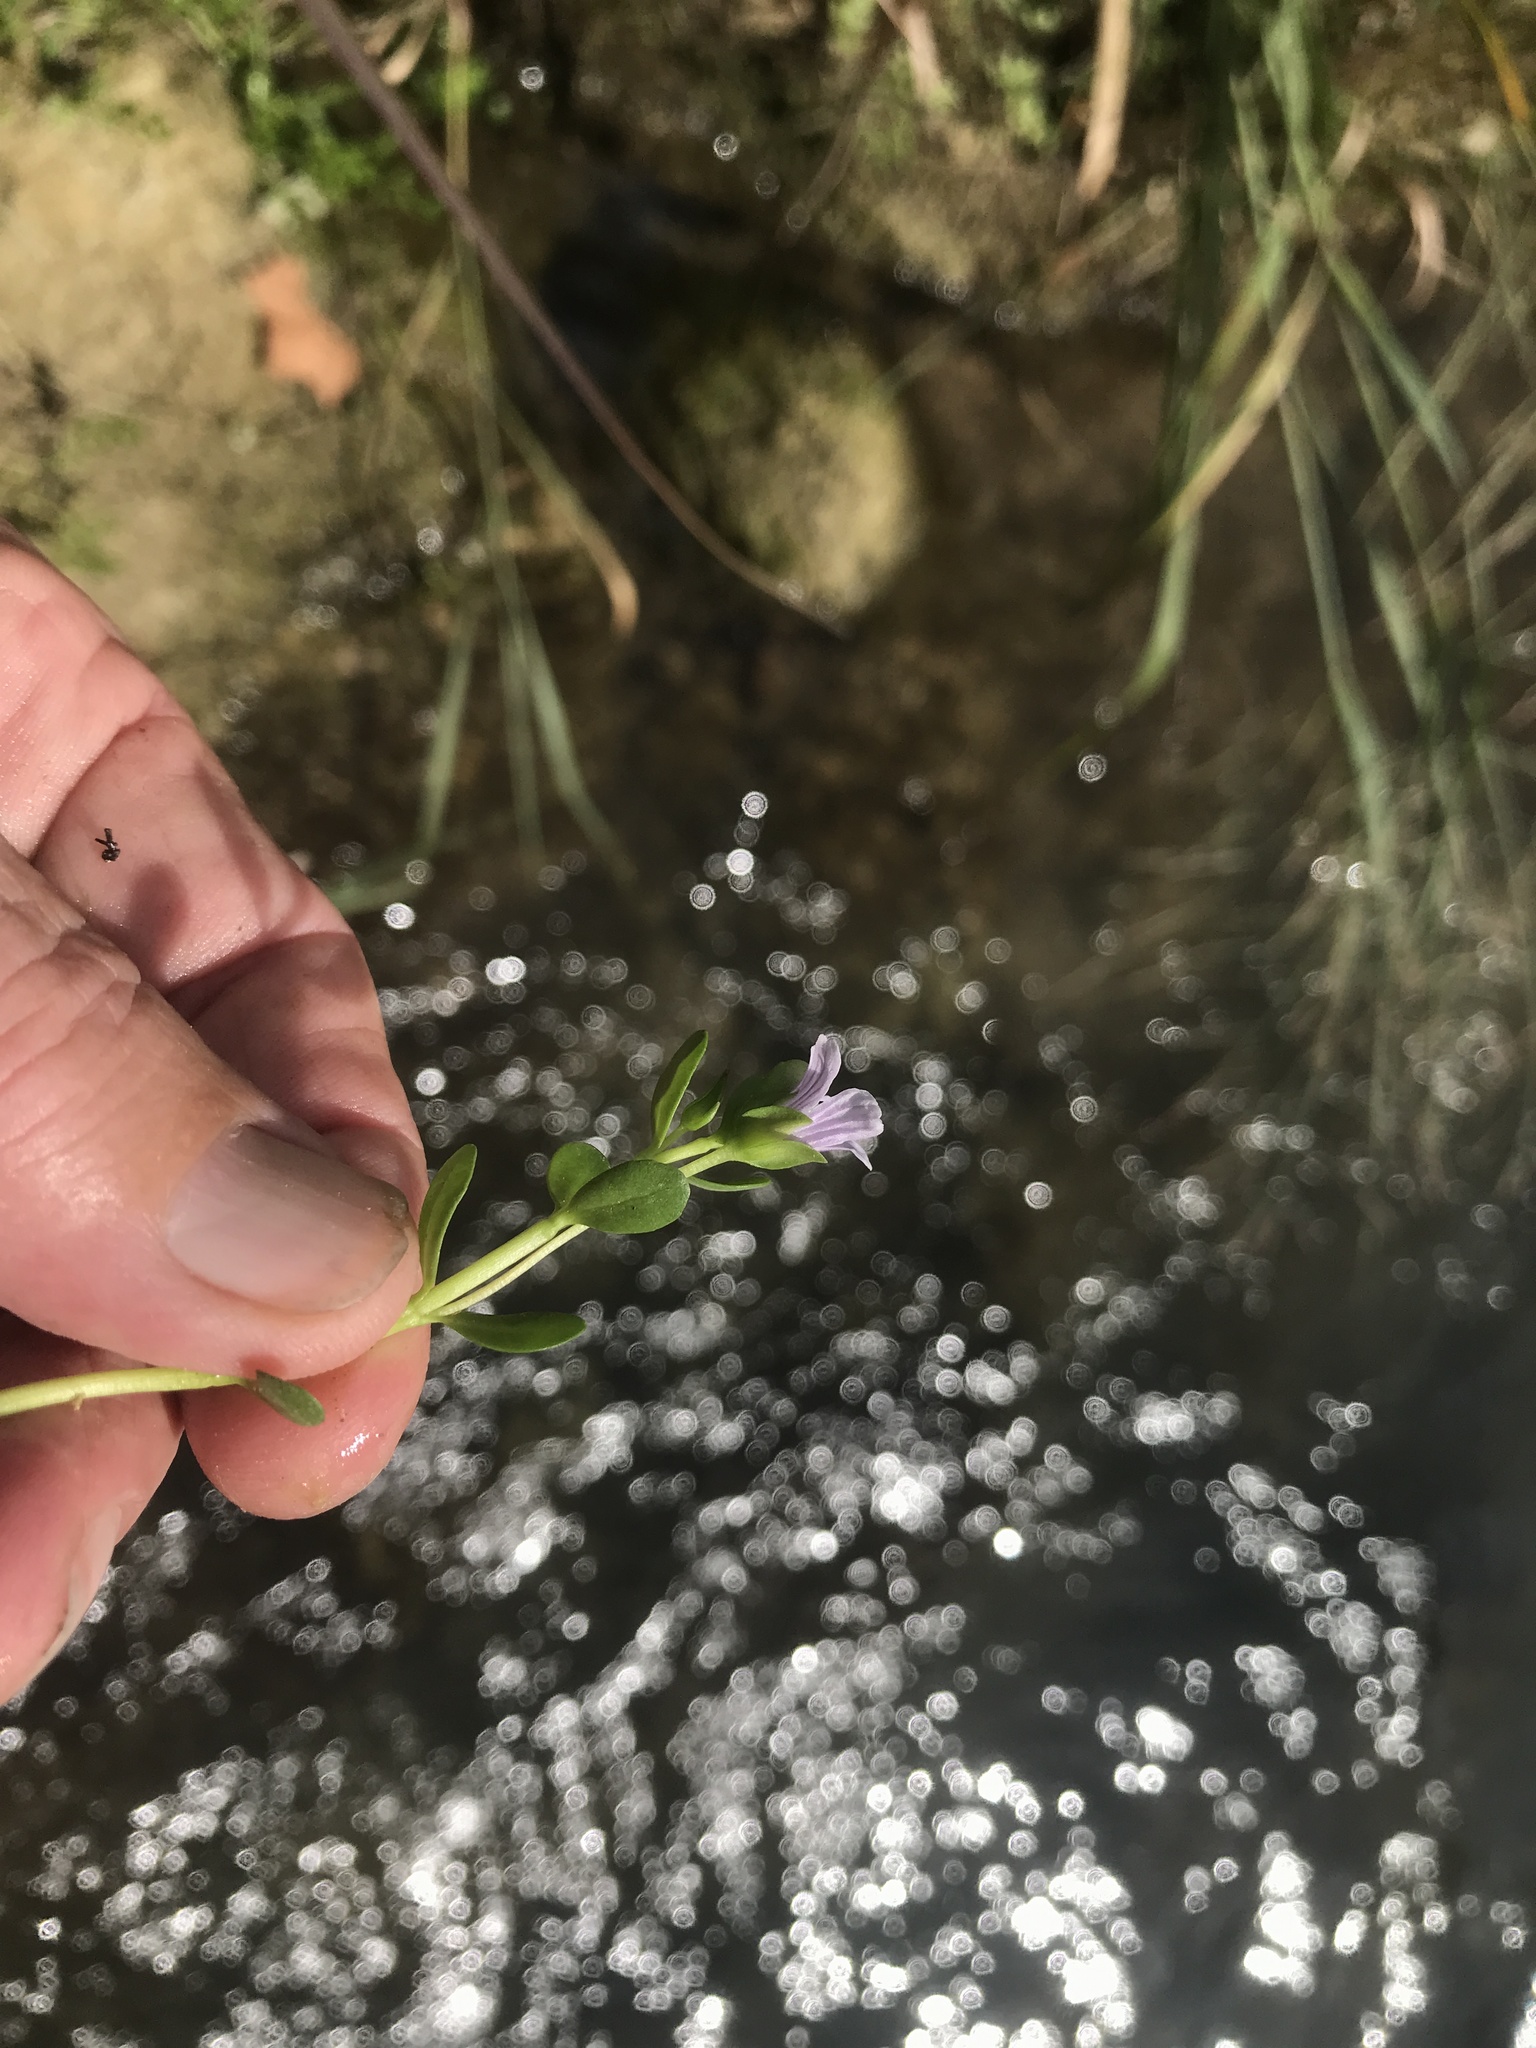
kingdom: Plantae
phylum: Tracheophyta
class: Magnoliopsida
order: Lamiales
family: Plantaginaceae
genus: Bacopa
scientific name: Bacopa monnieri
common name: Indian-pennywort
